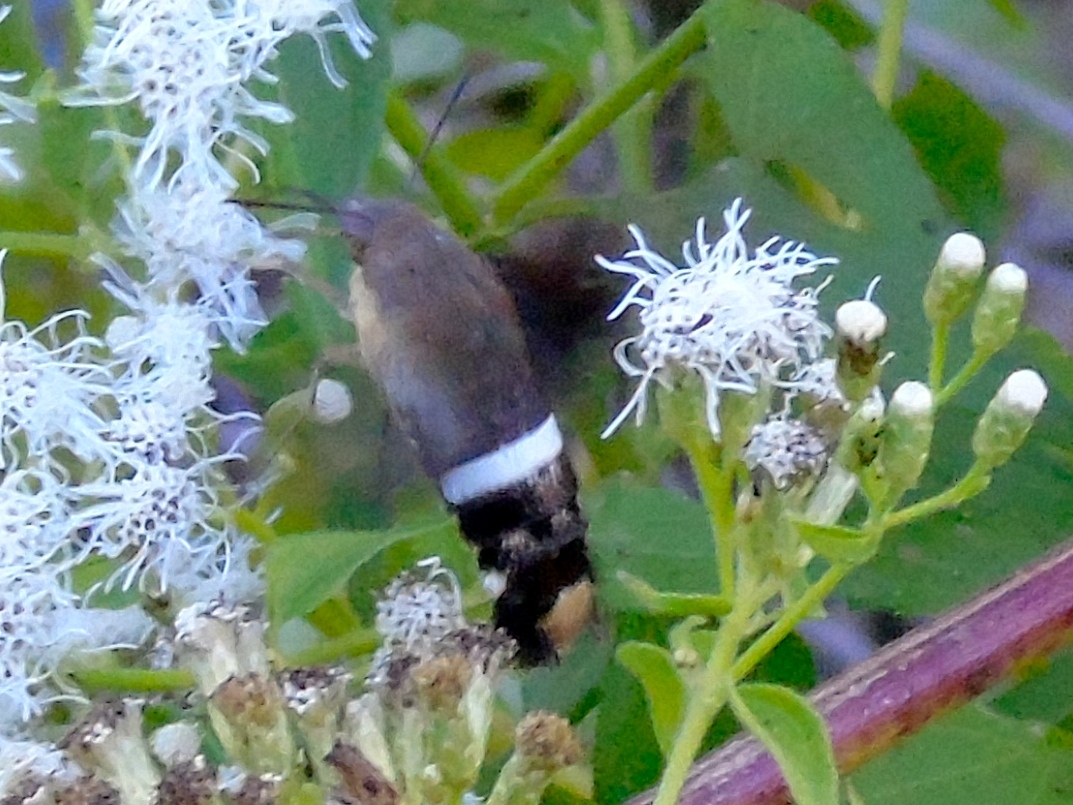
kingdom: Animalia
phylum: Arthropoda
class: Insecta
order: Lepidoptera
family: Sphingidae
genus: Aellopos
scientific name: Aellopos
